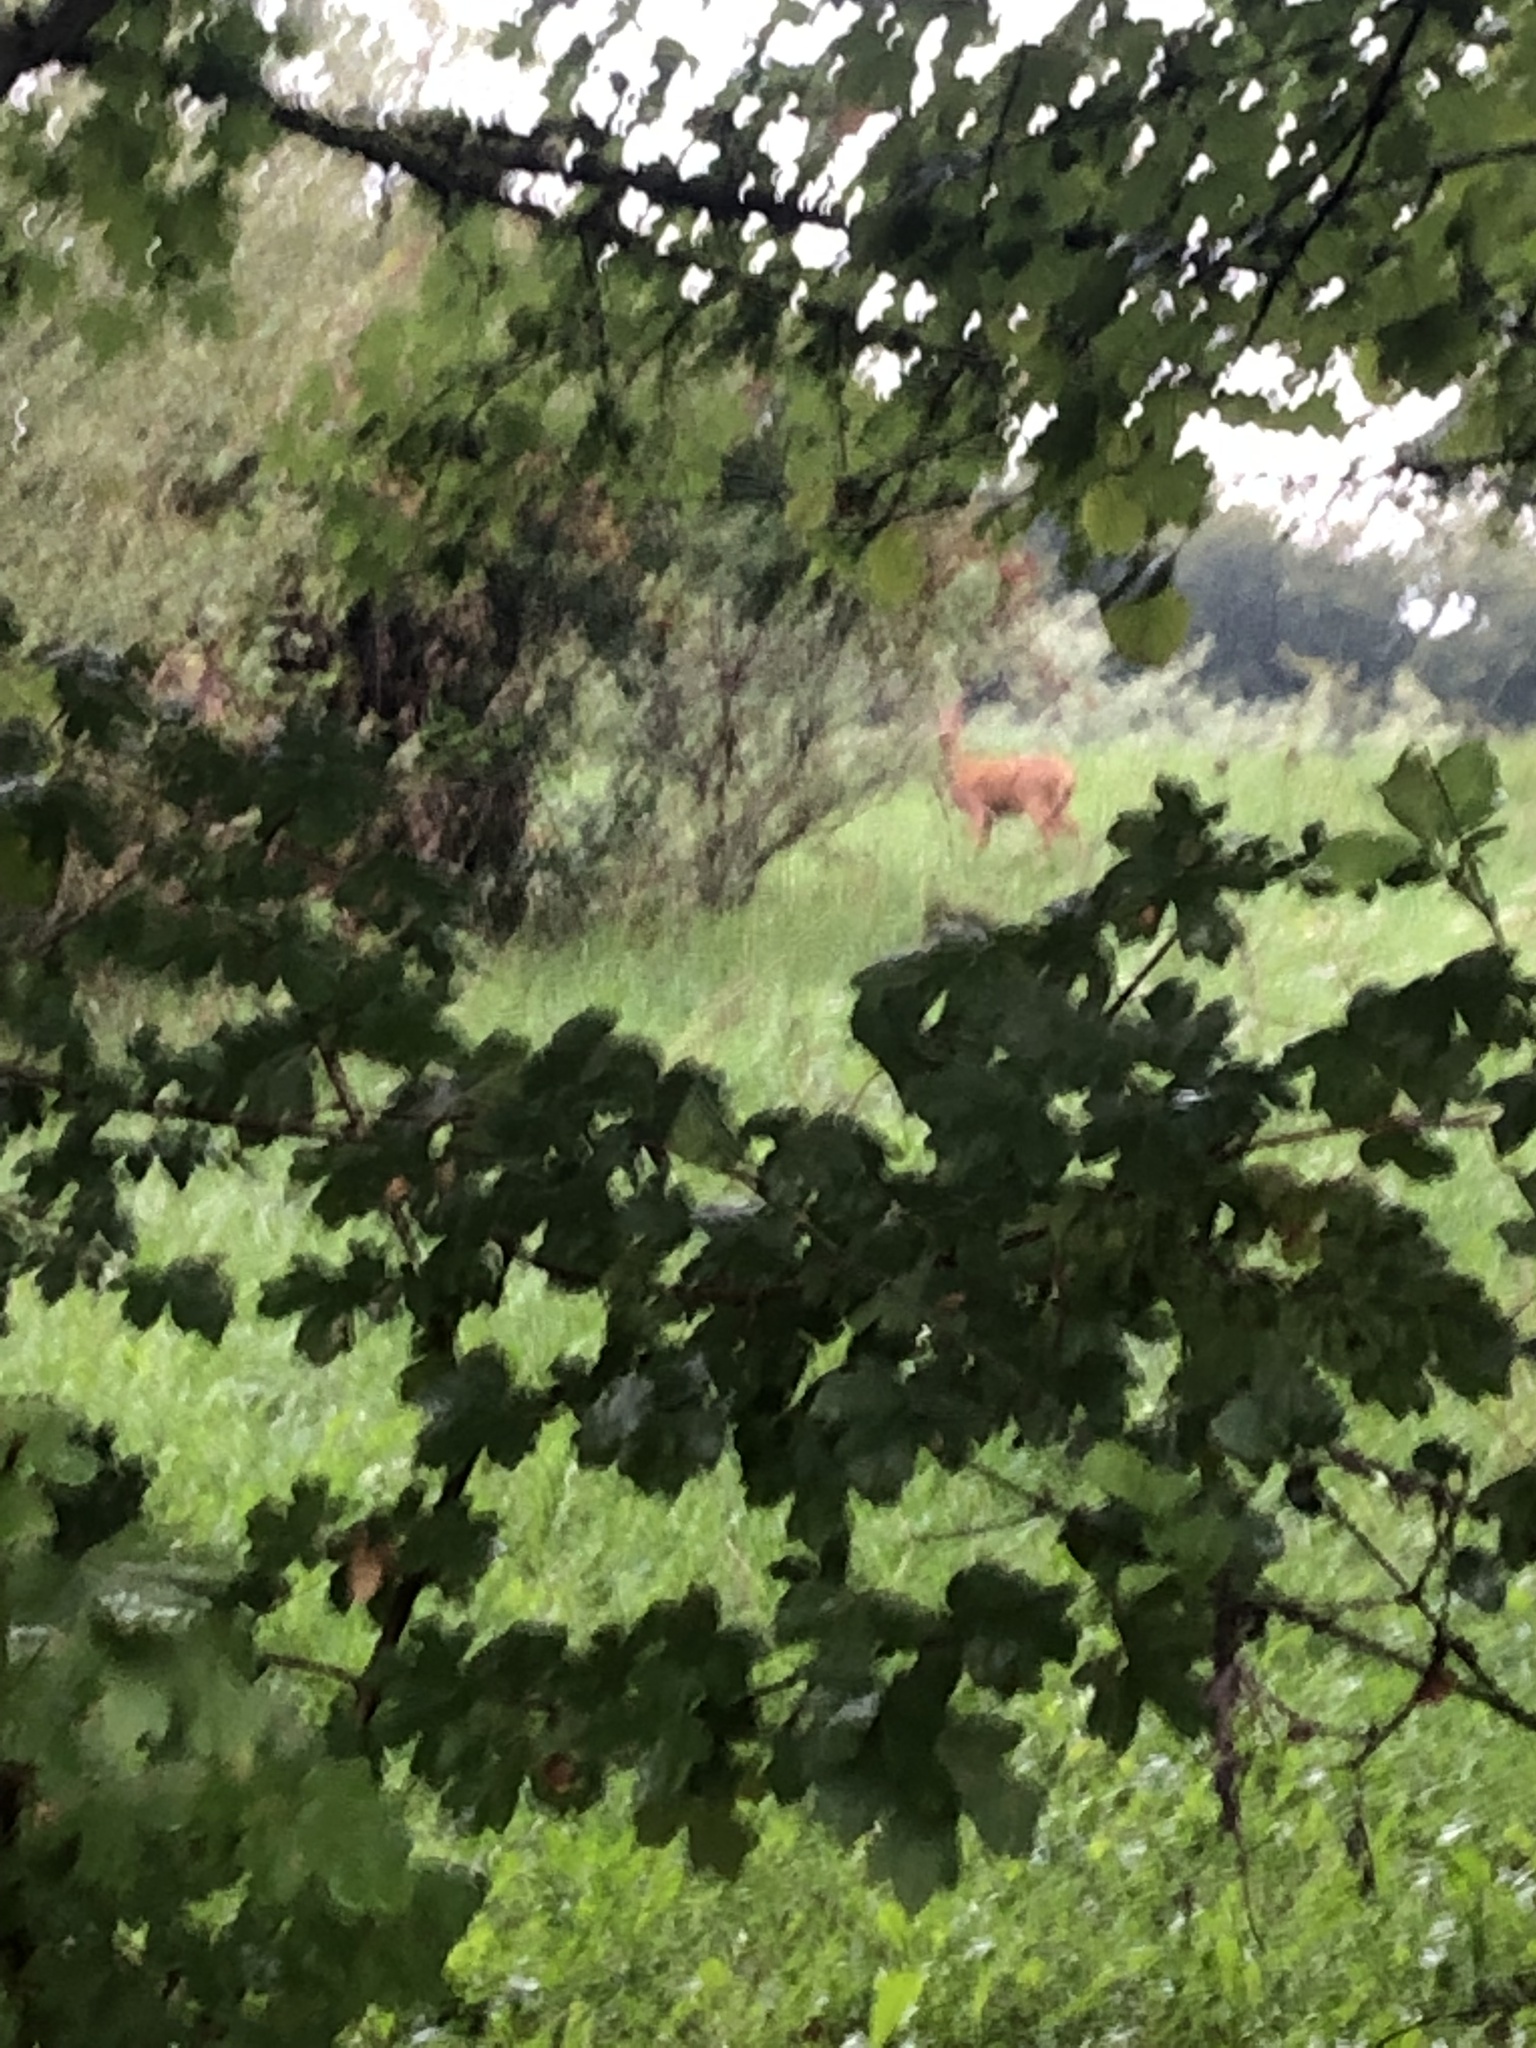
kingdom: Animalia
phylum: Chordata
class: Mammalia
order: Artiodactyla
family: Cervidae
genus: Capreolus
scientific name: Capreolus capreolus
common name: Western roe deer
